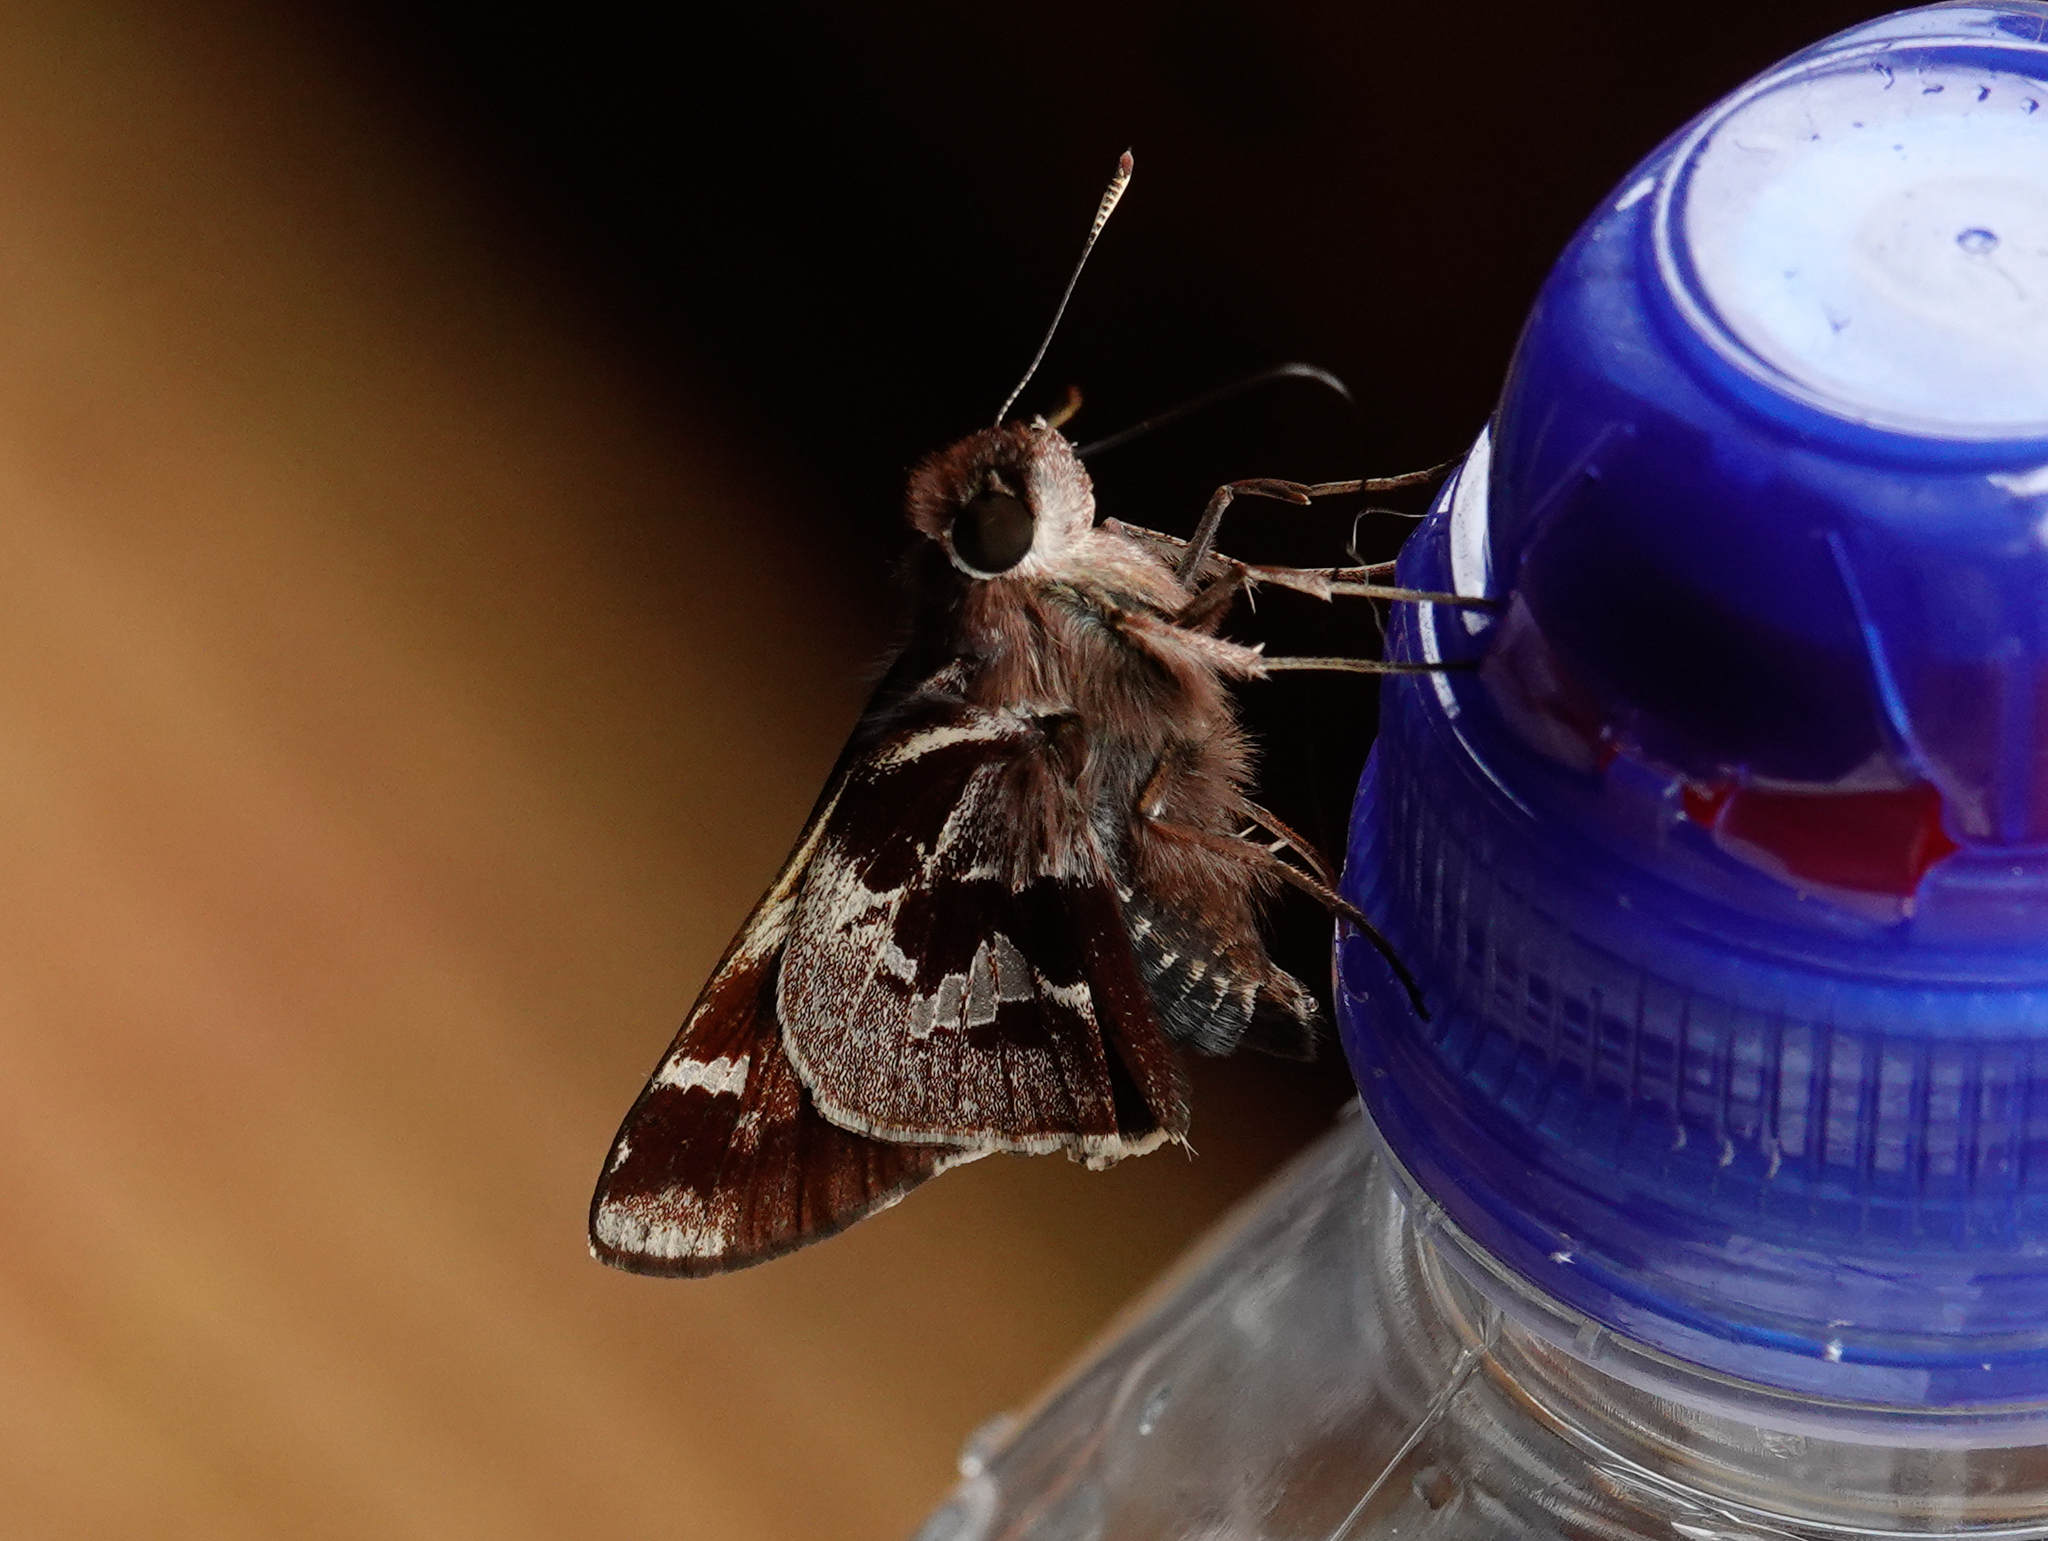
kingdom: Animalia
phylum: Arthropoda
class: Insecta
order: Lepidoptera
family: Hesperiidae
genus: Thespieus
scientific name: Thespieus aspernatus
